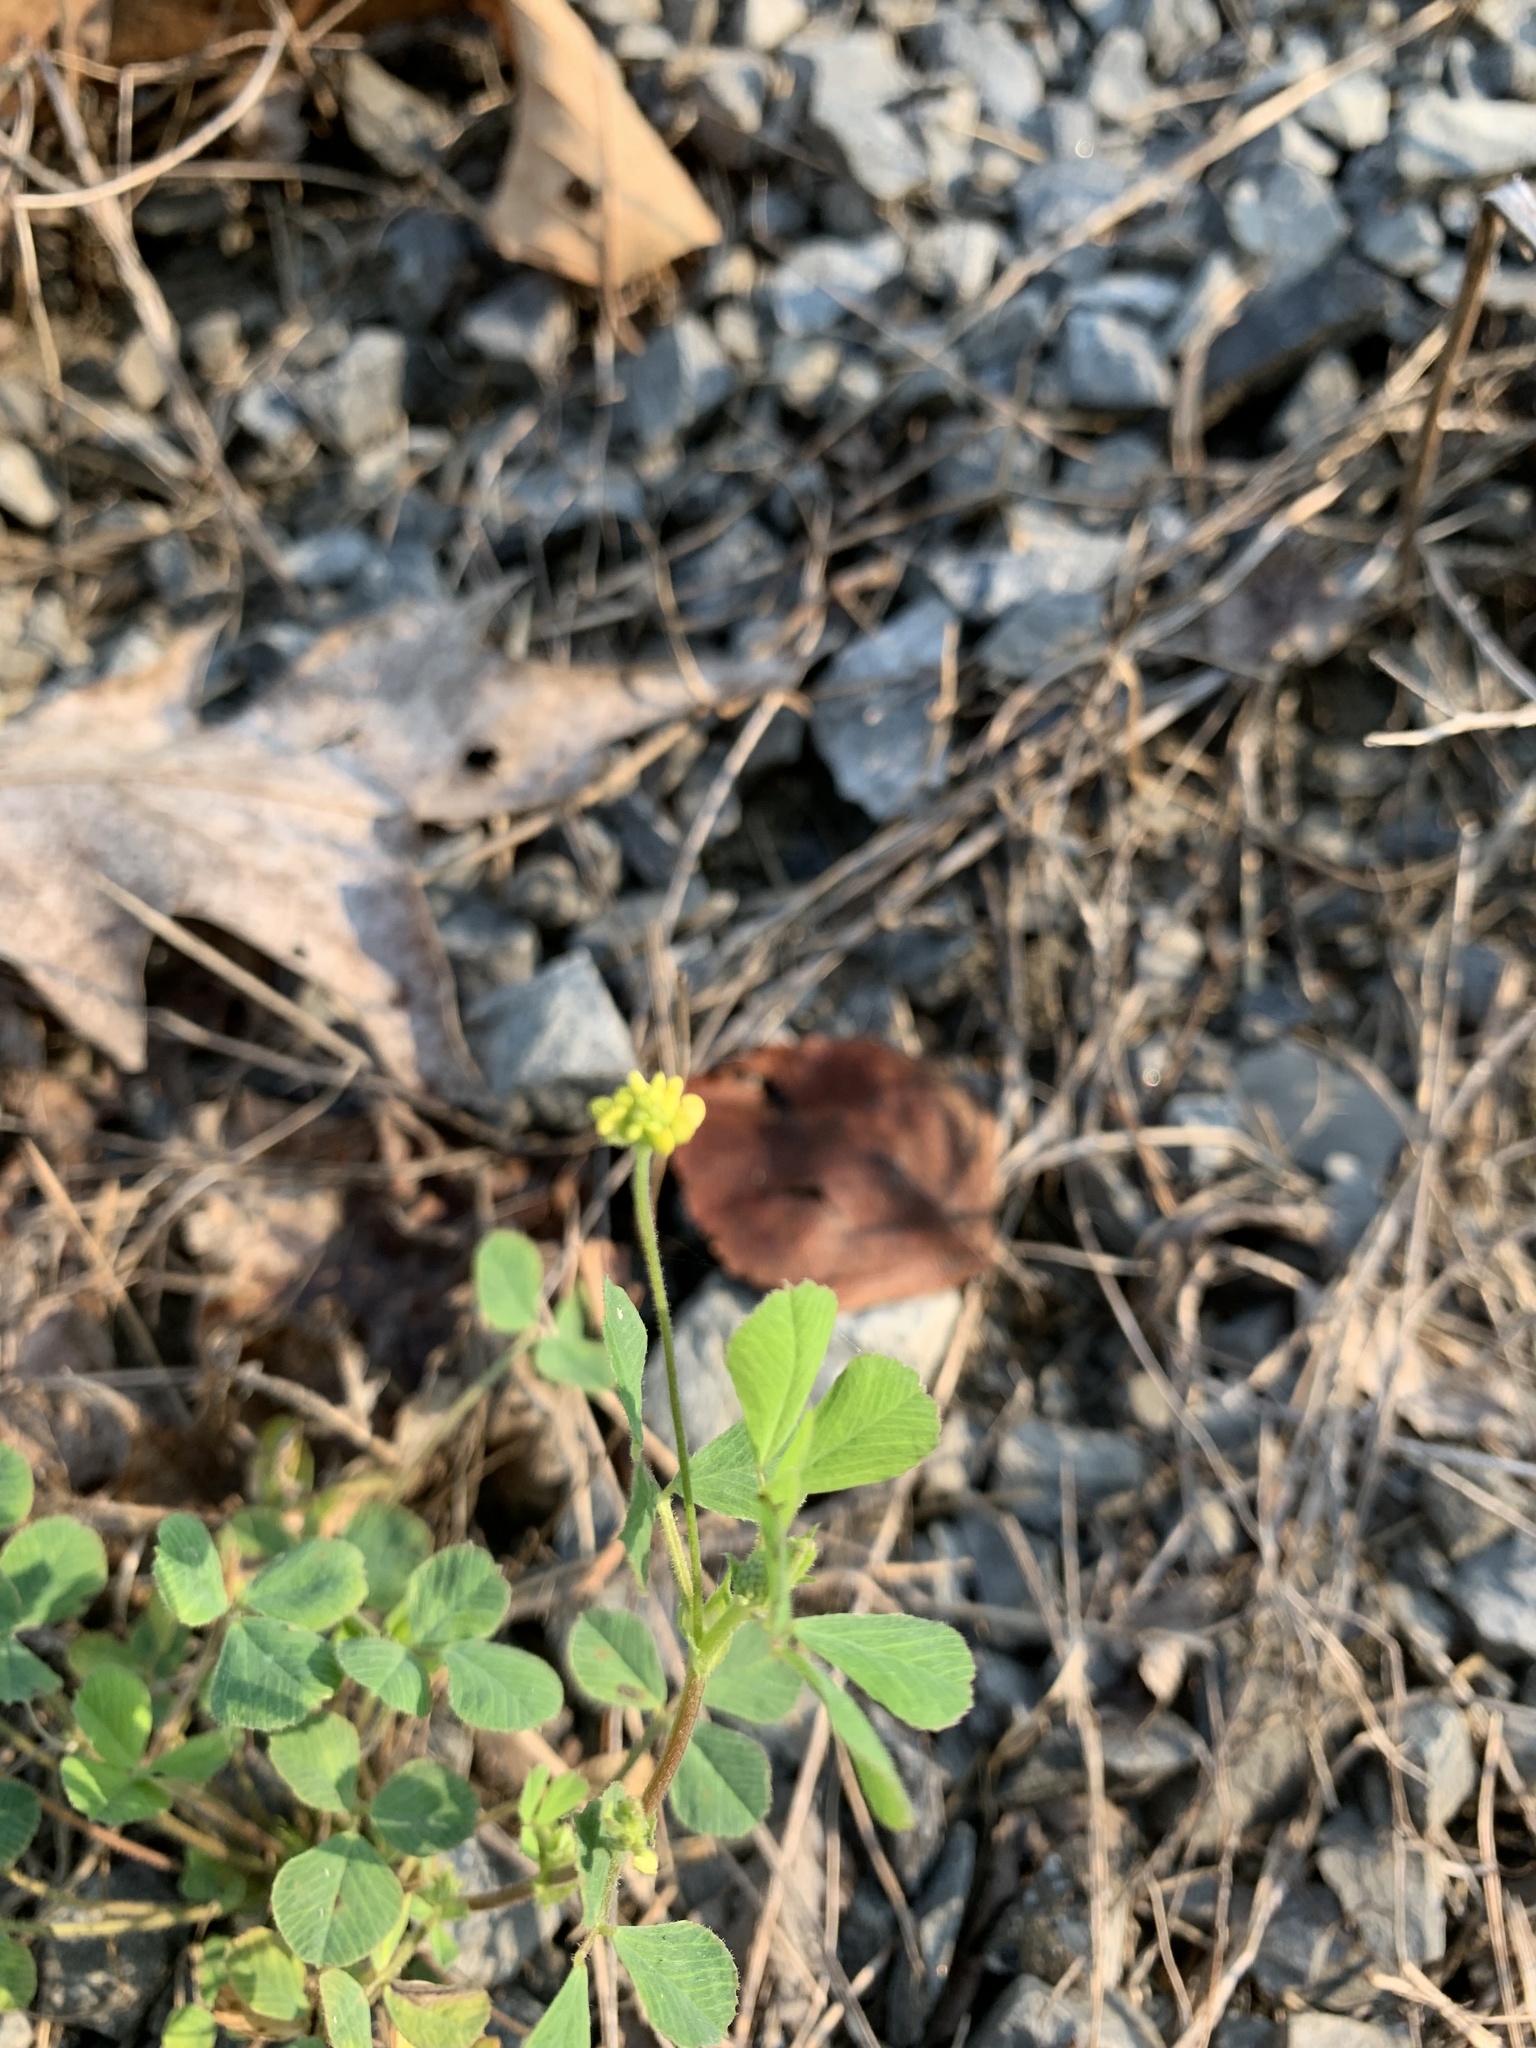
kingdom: Plantae
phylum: Tracheophyta
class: Magnoliopsida
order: Fabales
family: Fabaceae
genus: Medicago
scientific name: Medicago lupulina
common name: Black medick
